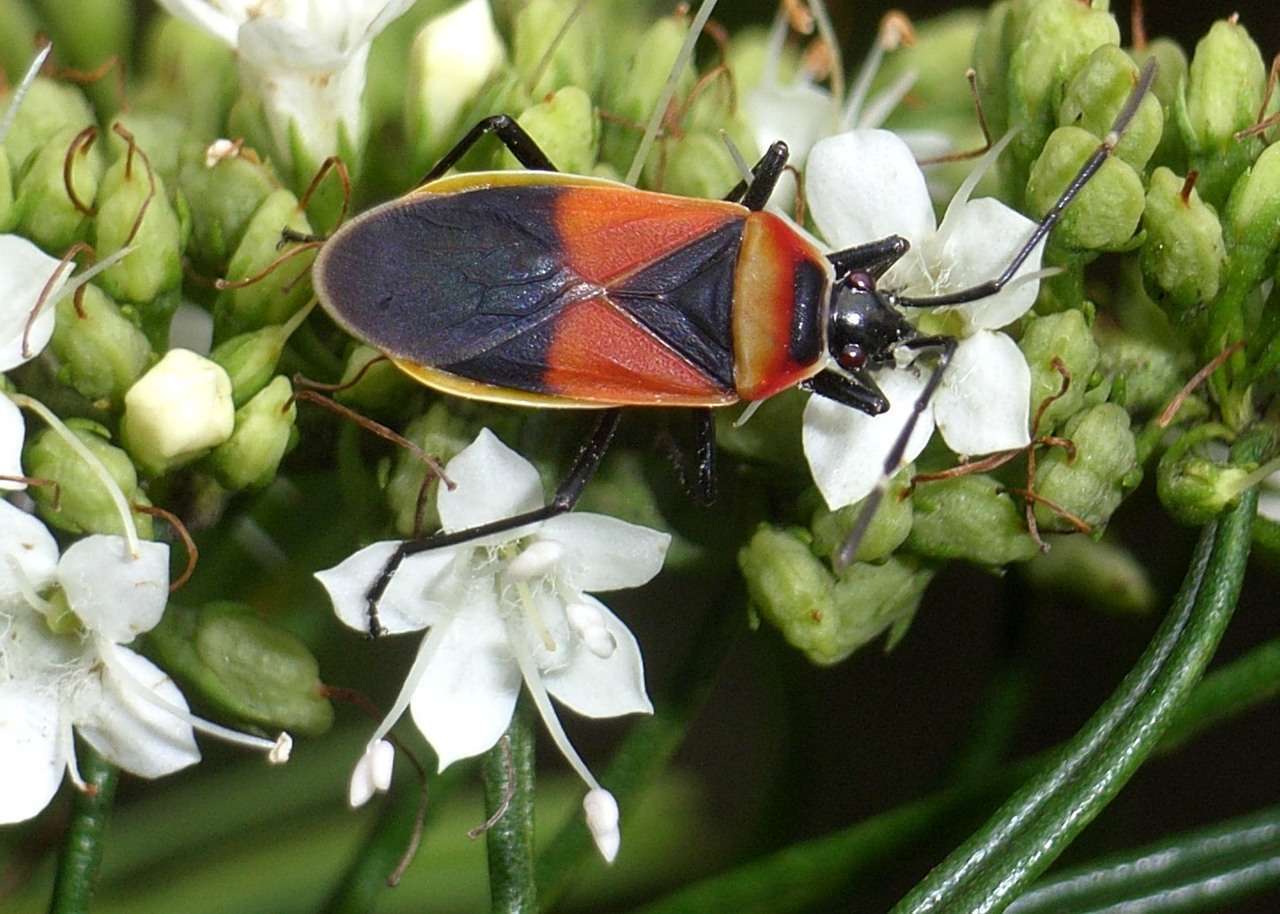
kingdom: Animalia
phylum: Arthropoda
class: Insecta
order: Hemiptera
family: Pyrrhocoridae
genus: Dindymus
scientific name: Dindymus
